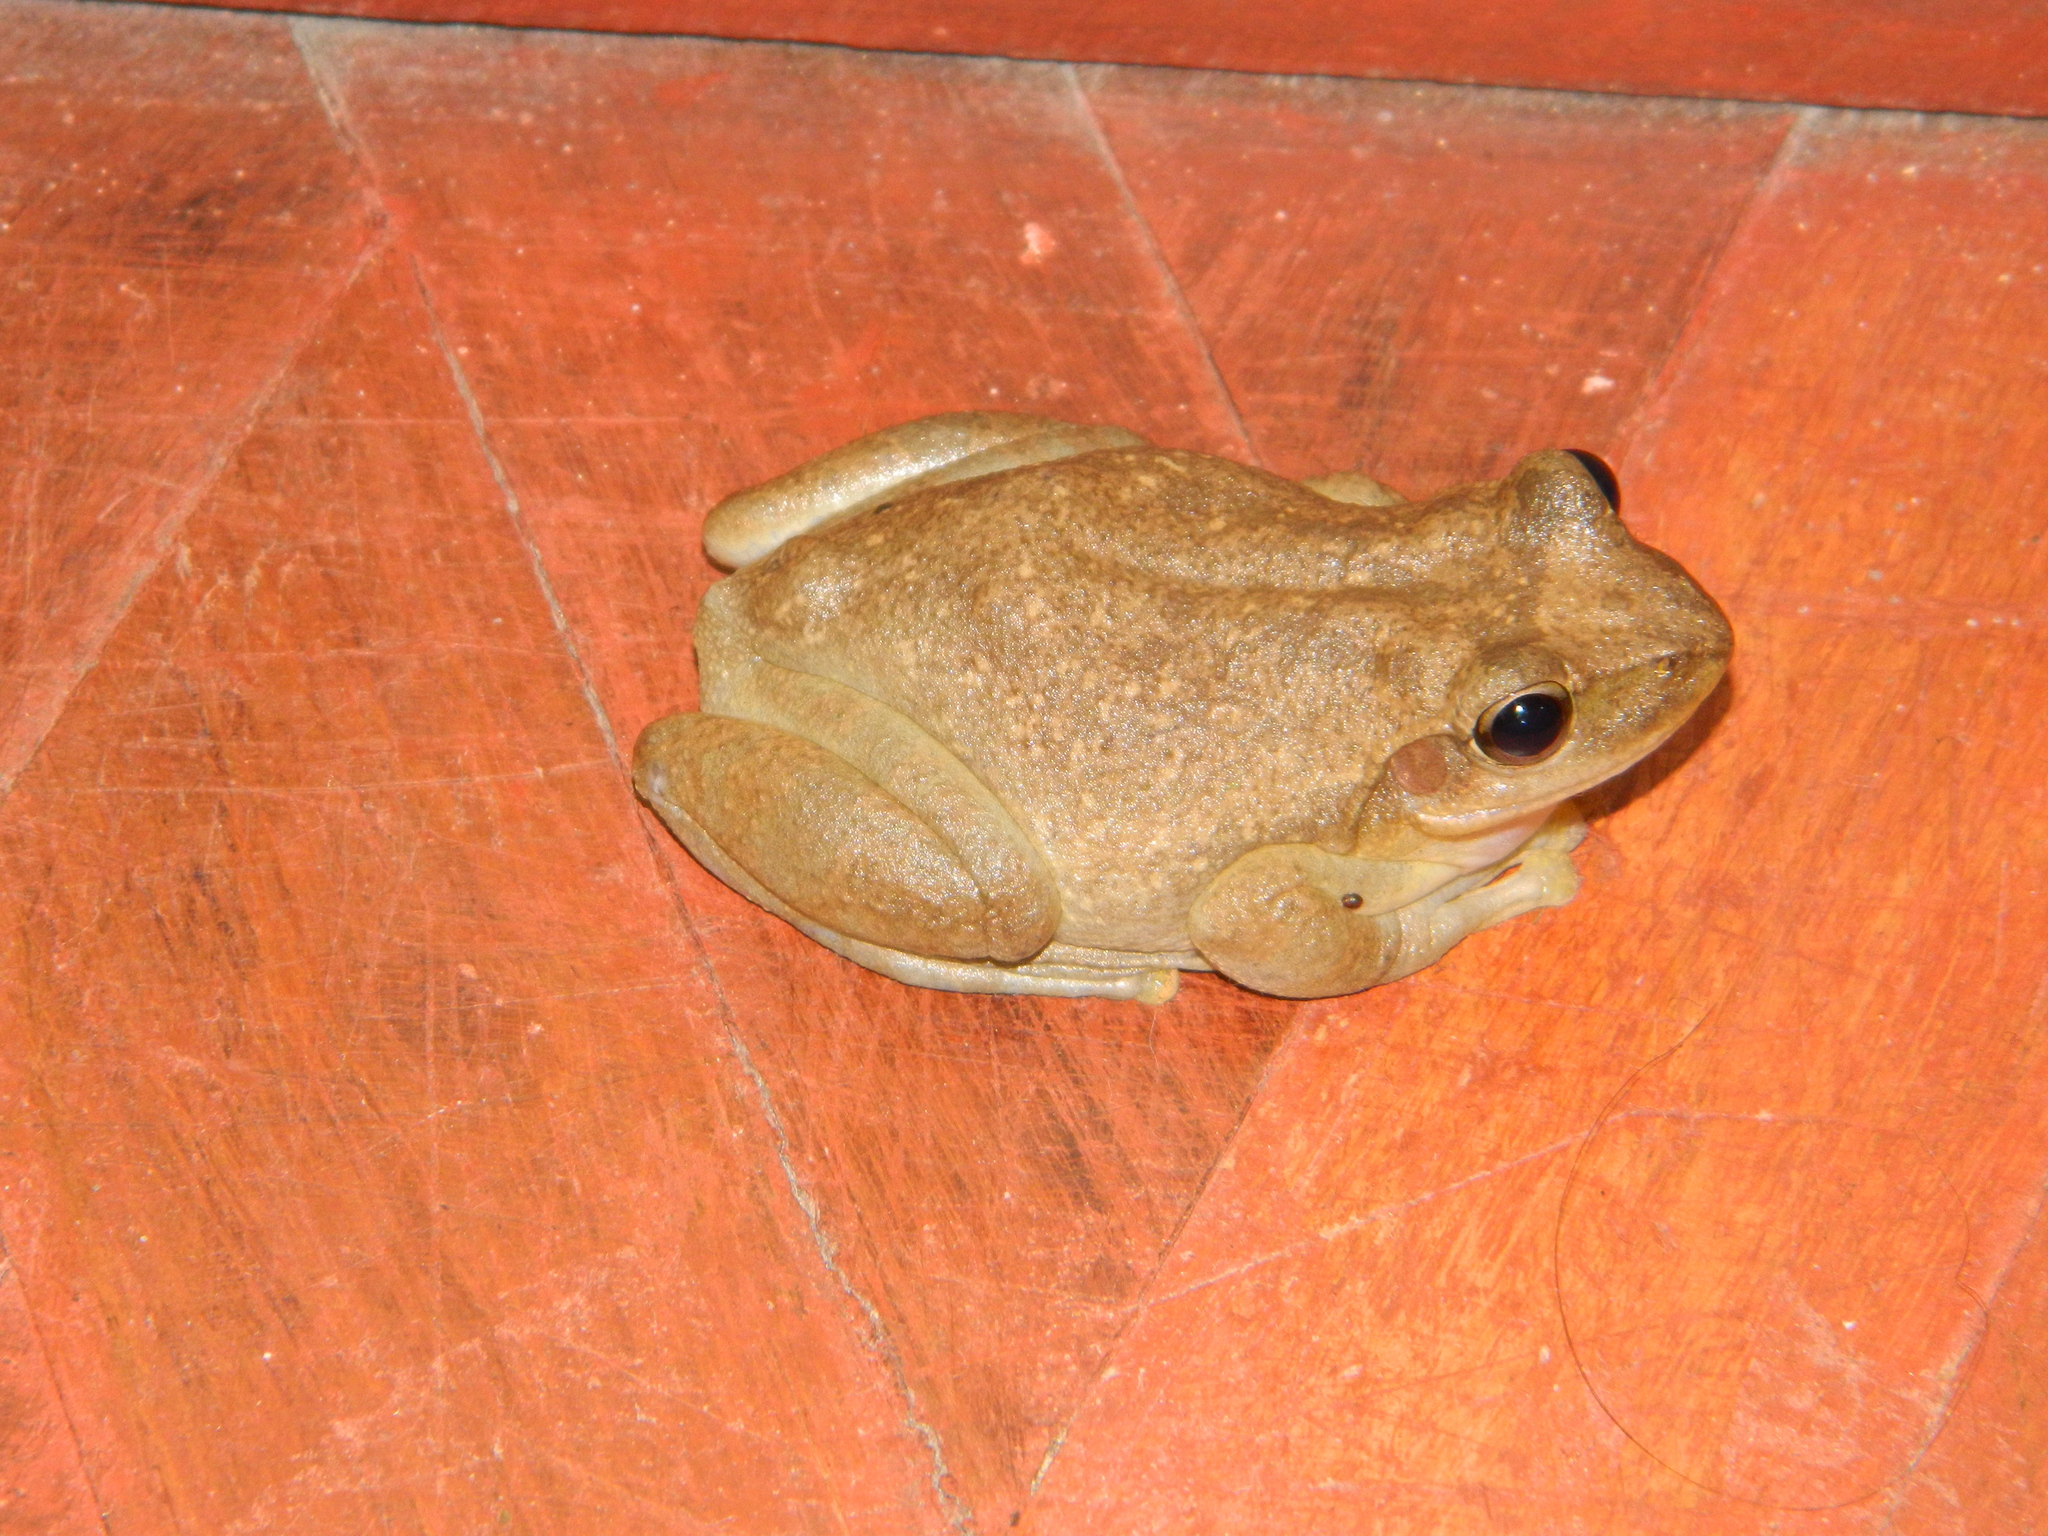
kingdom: Animalia
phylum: Chordata
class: Amphibia
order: Anura
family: Mantellidae
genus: Boophis
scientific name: Boophis tephraeomystax
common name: Dumeril's bright-eyed frog
